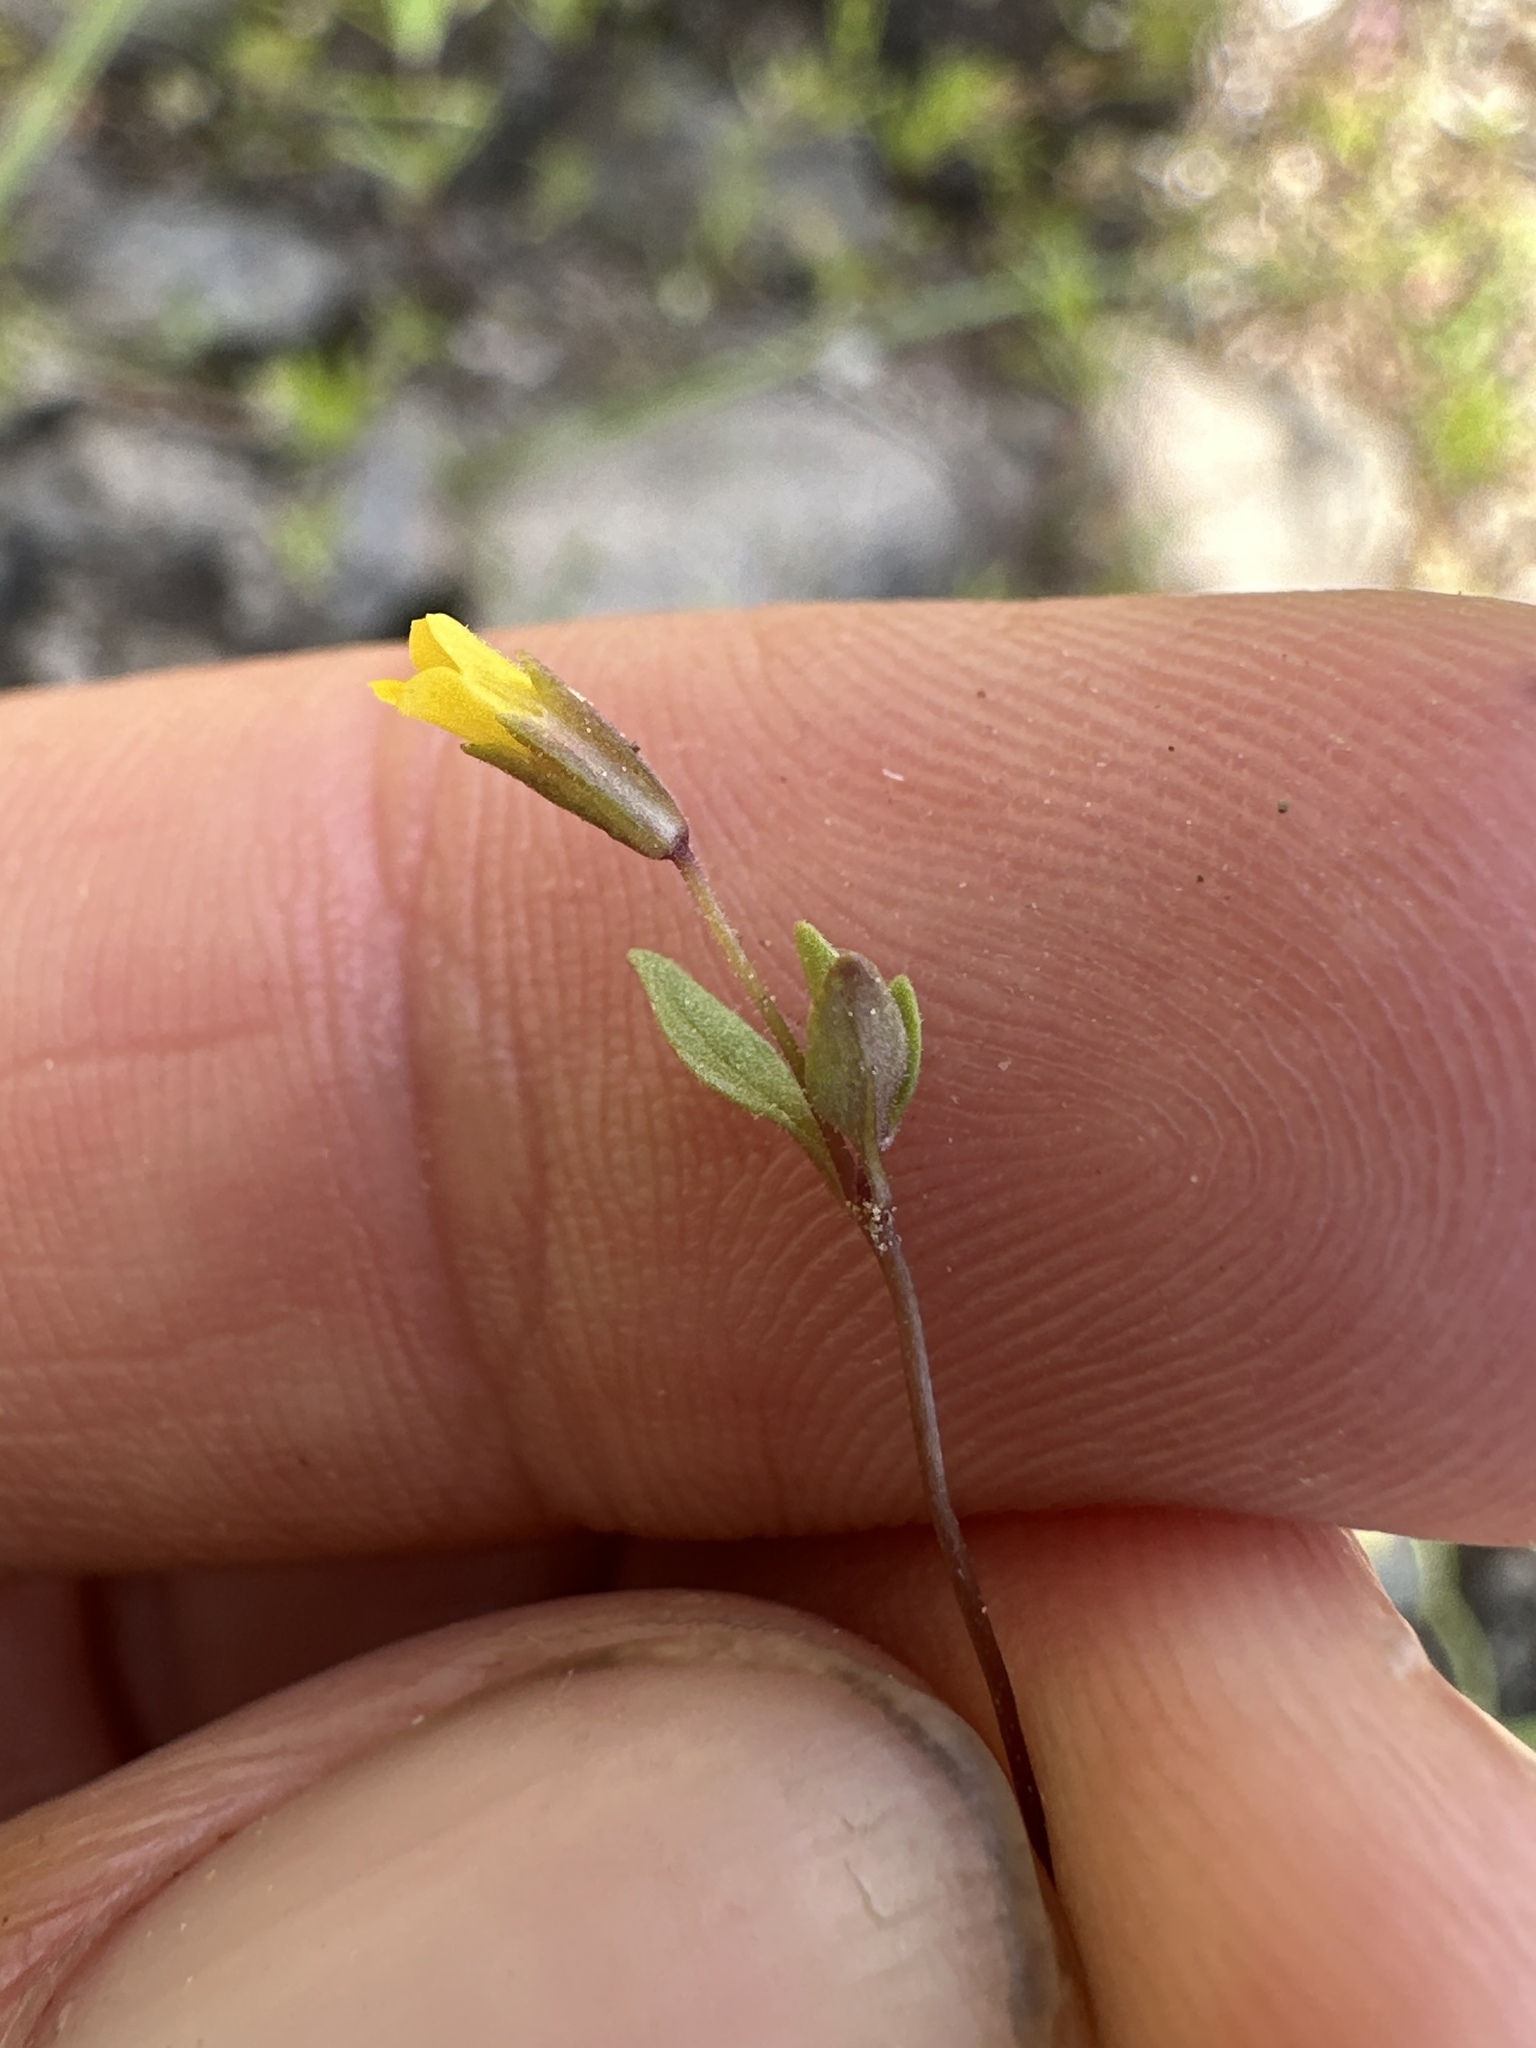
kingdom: Plantae
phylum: Tracheophyta
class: Magnoliopsida
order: Lamiales
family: Phrymaceae
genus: Erythranthe
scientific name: Erythranthe breviflora
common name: Short-flowered monkeyflower
